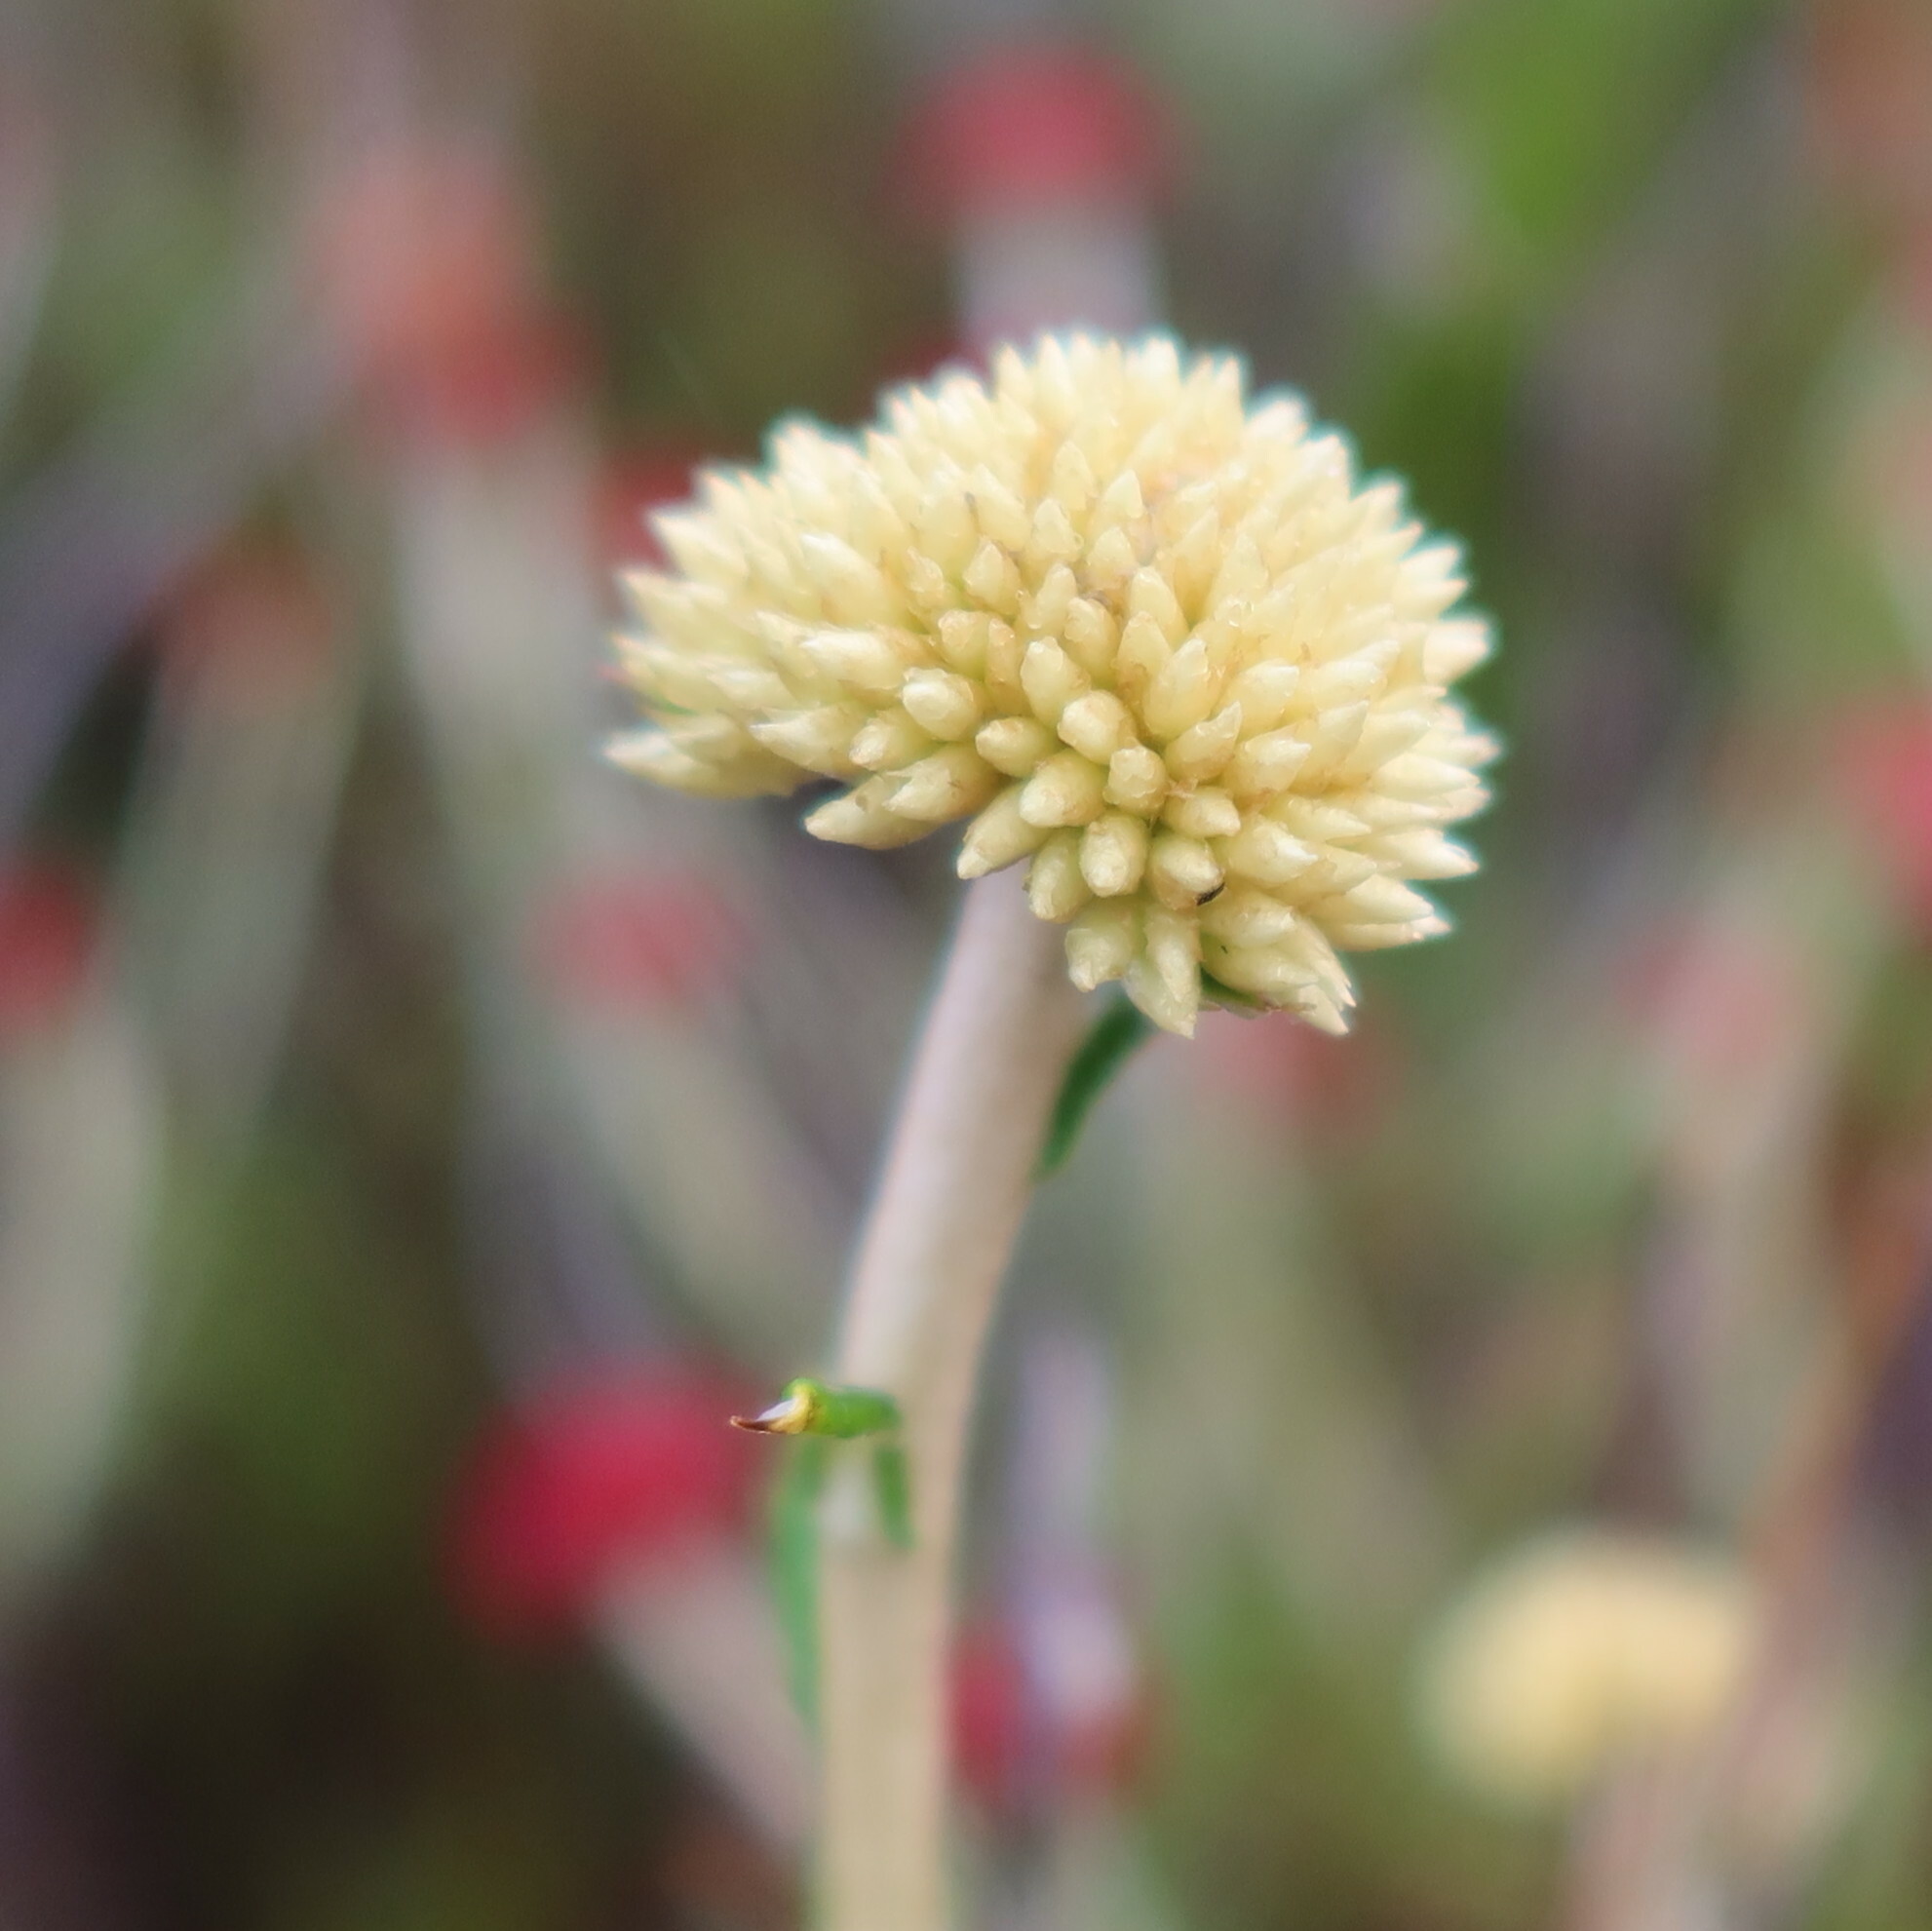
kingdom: Plantae
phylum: Tracheophyta
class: Magnoliopsida
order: Asterales
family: Asteraceae
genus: Anaxeton
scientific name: Anaxeton arborescens
